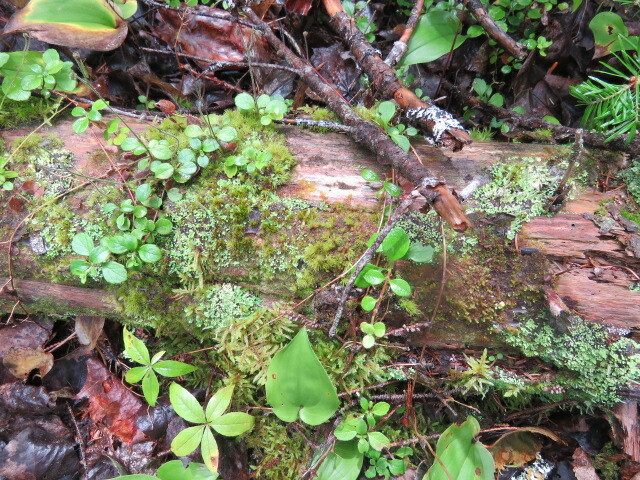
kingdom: Plantae
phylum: Tracheophyta
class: Magnoliopsida
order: Dipsacales
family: Caprifoliaceae
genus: Linnaea
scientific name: Linnaea borealis
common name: Twinflower
